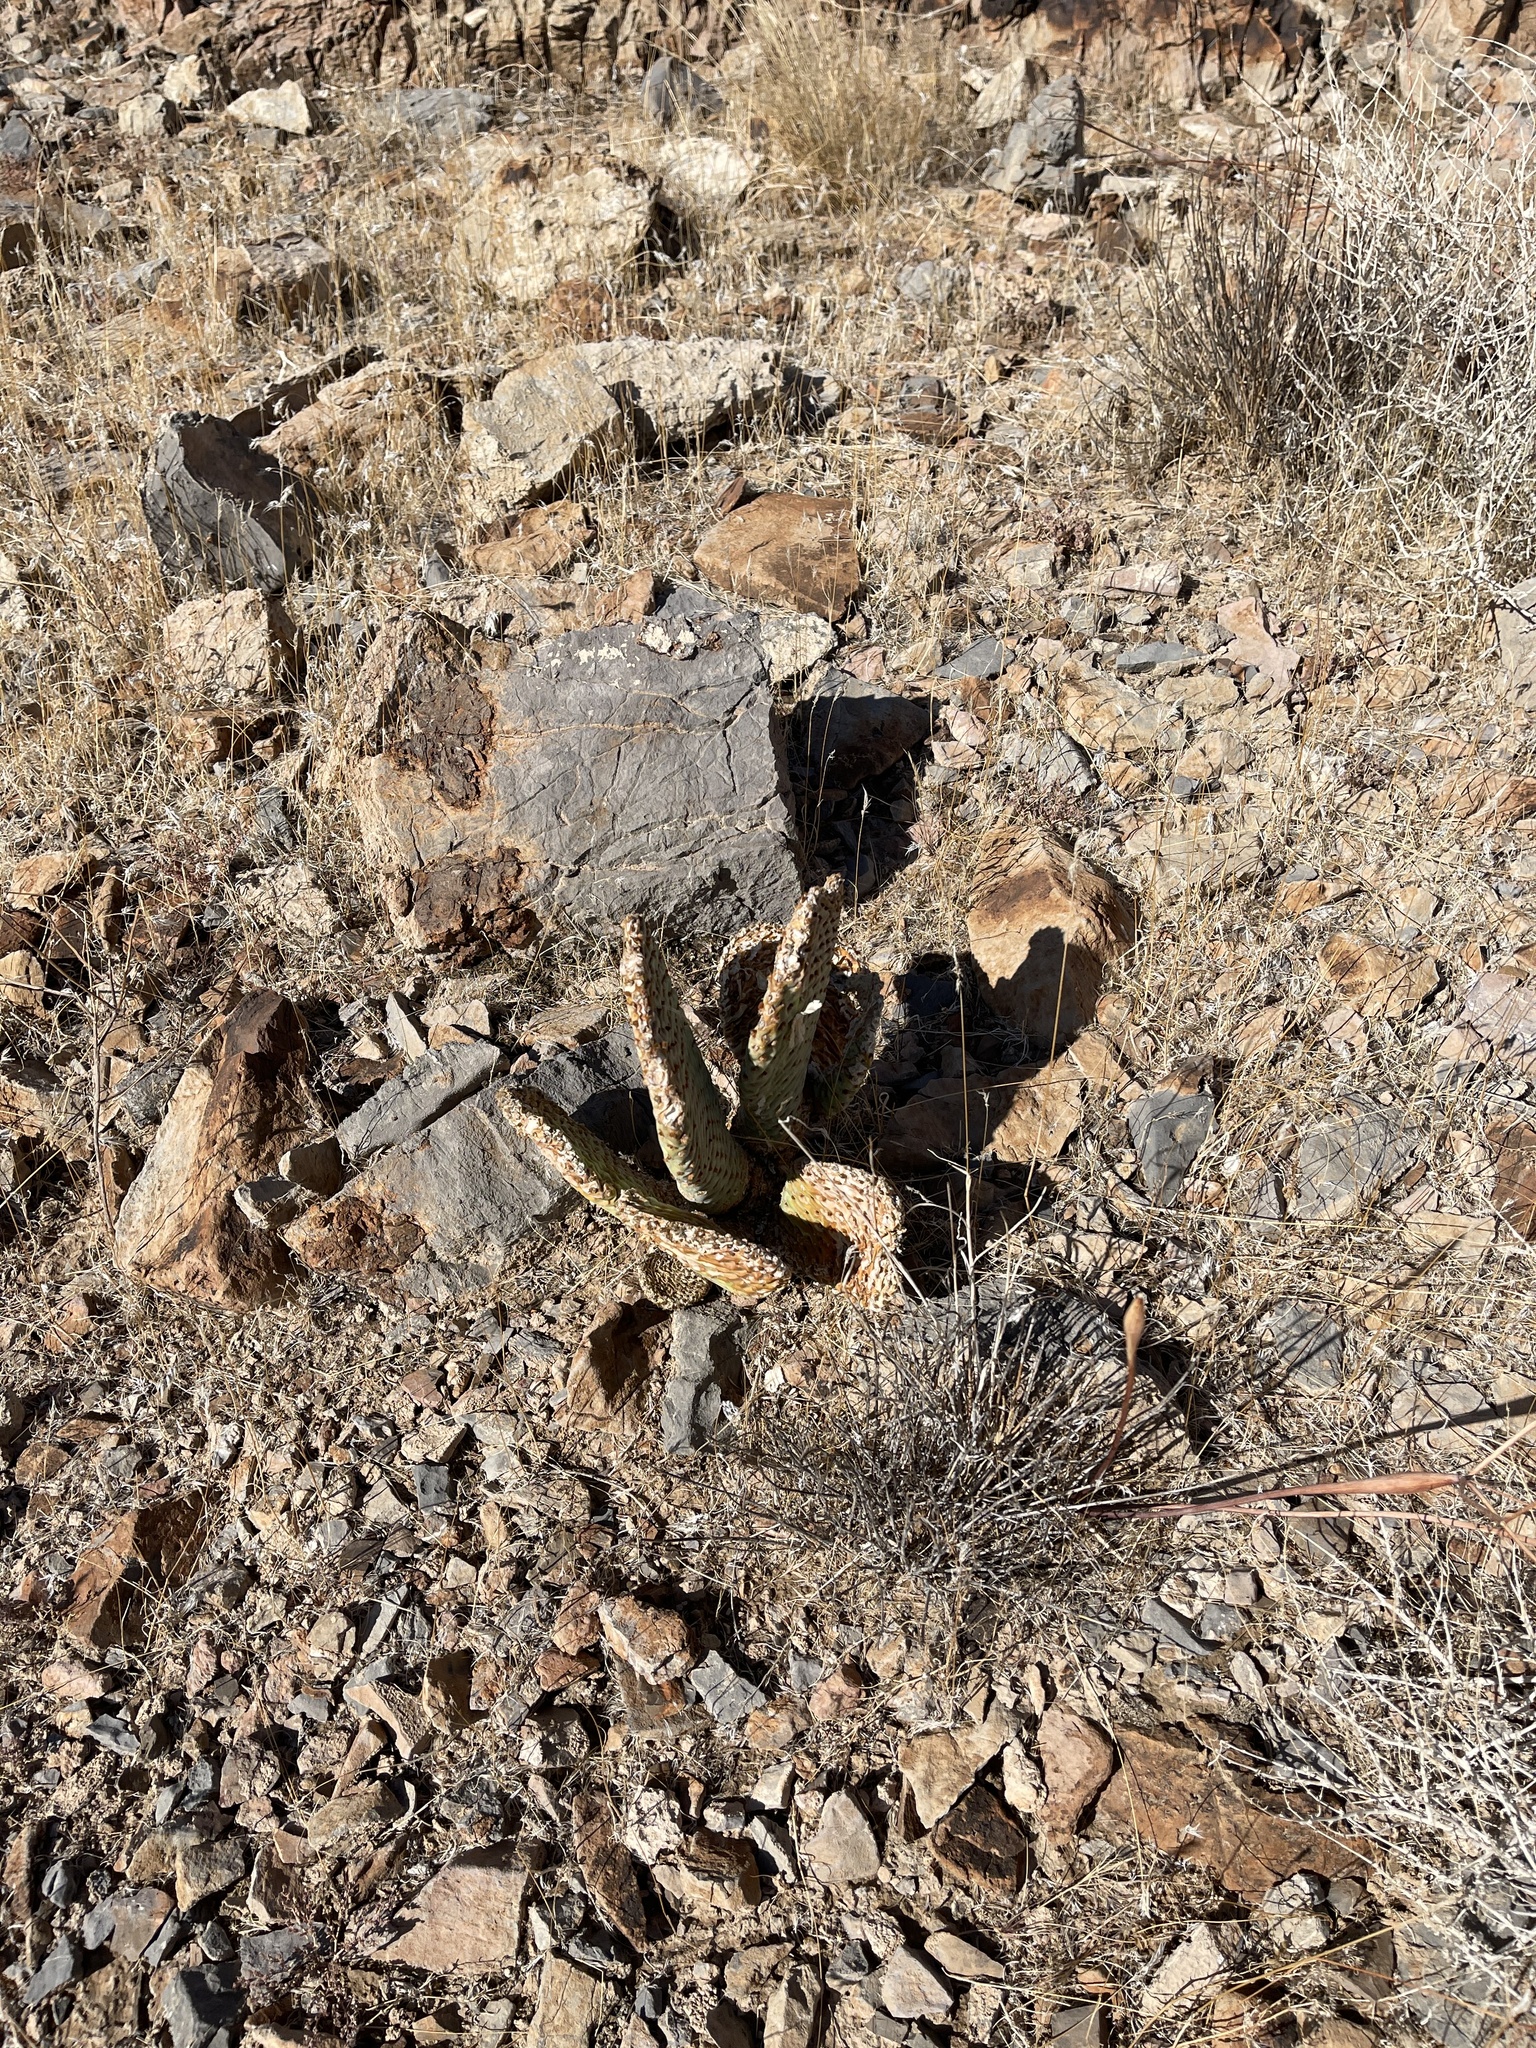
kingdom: Plantae
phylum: Tracheophyta
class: Magnoliopsida
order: Caryophyllales
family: Cactaceae
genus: Opuntia
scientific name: Opuntia basilaris
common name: Beavertail prickly-pear
